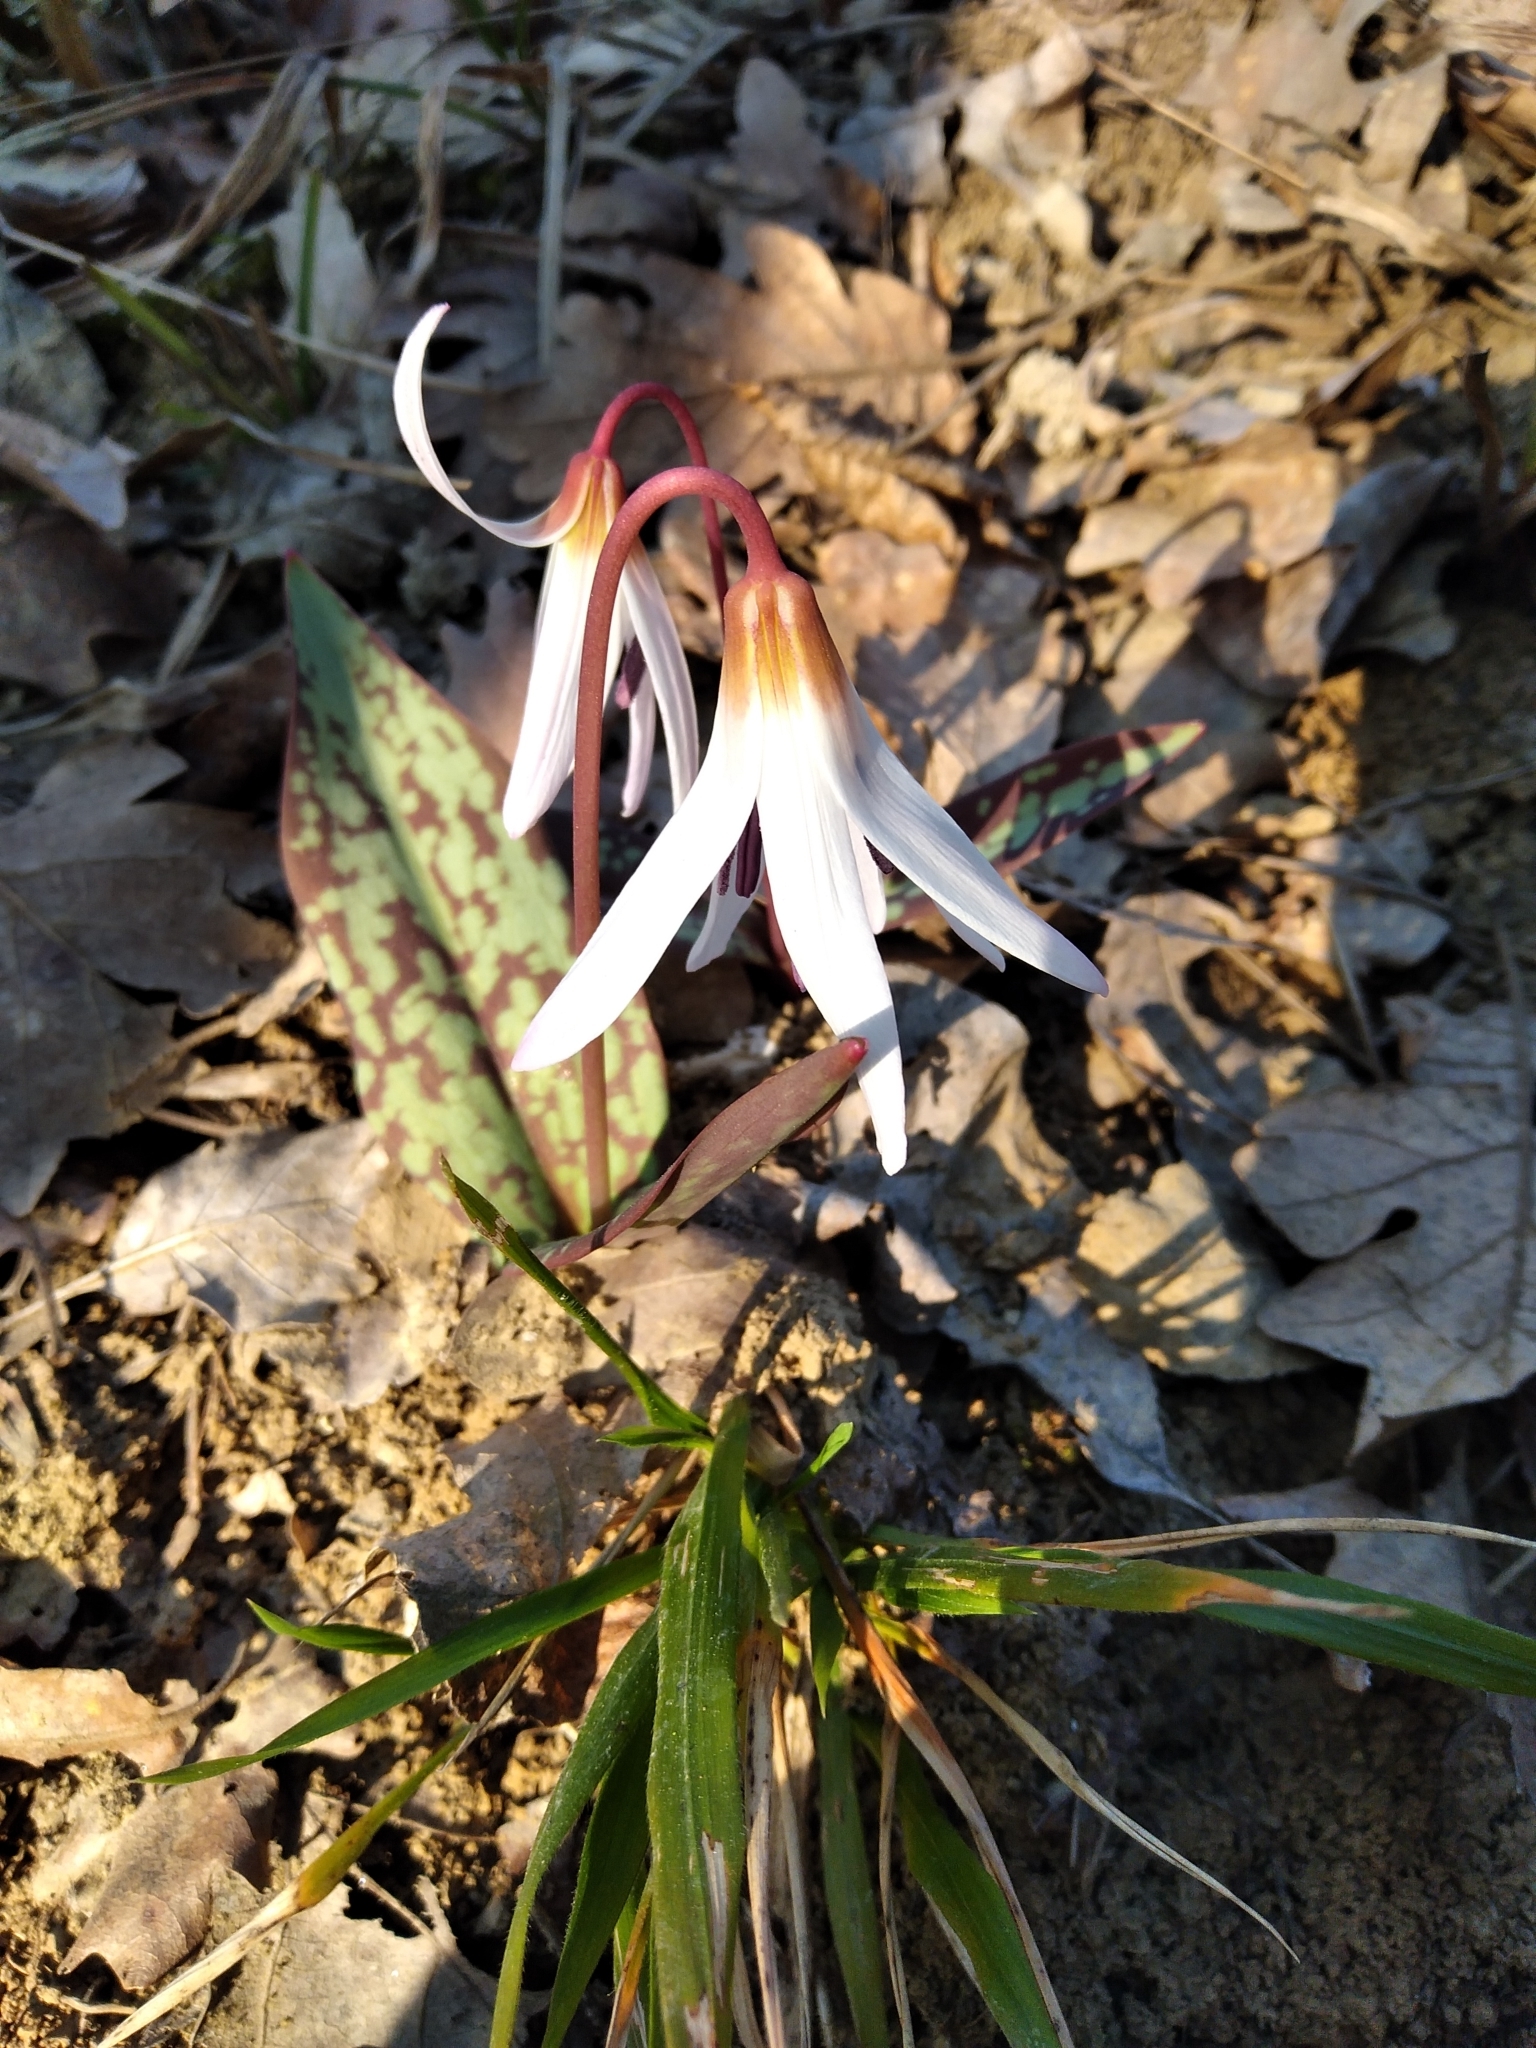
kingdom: Plantae
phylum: Tracheophyta
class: Liliopsida
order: Liliales
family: Liliaceae
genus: Erythronium
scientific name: Erythronium dens-canis
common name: Dog's-tooth-violet
